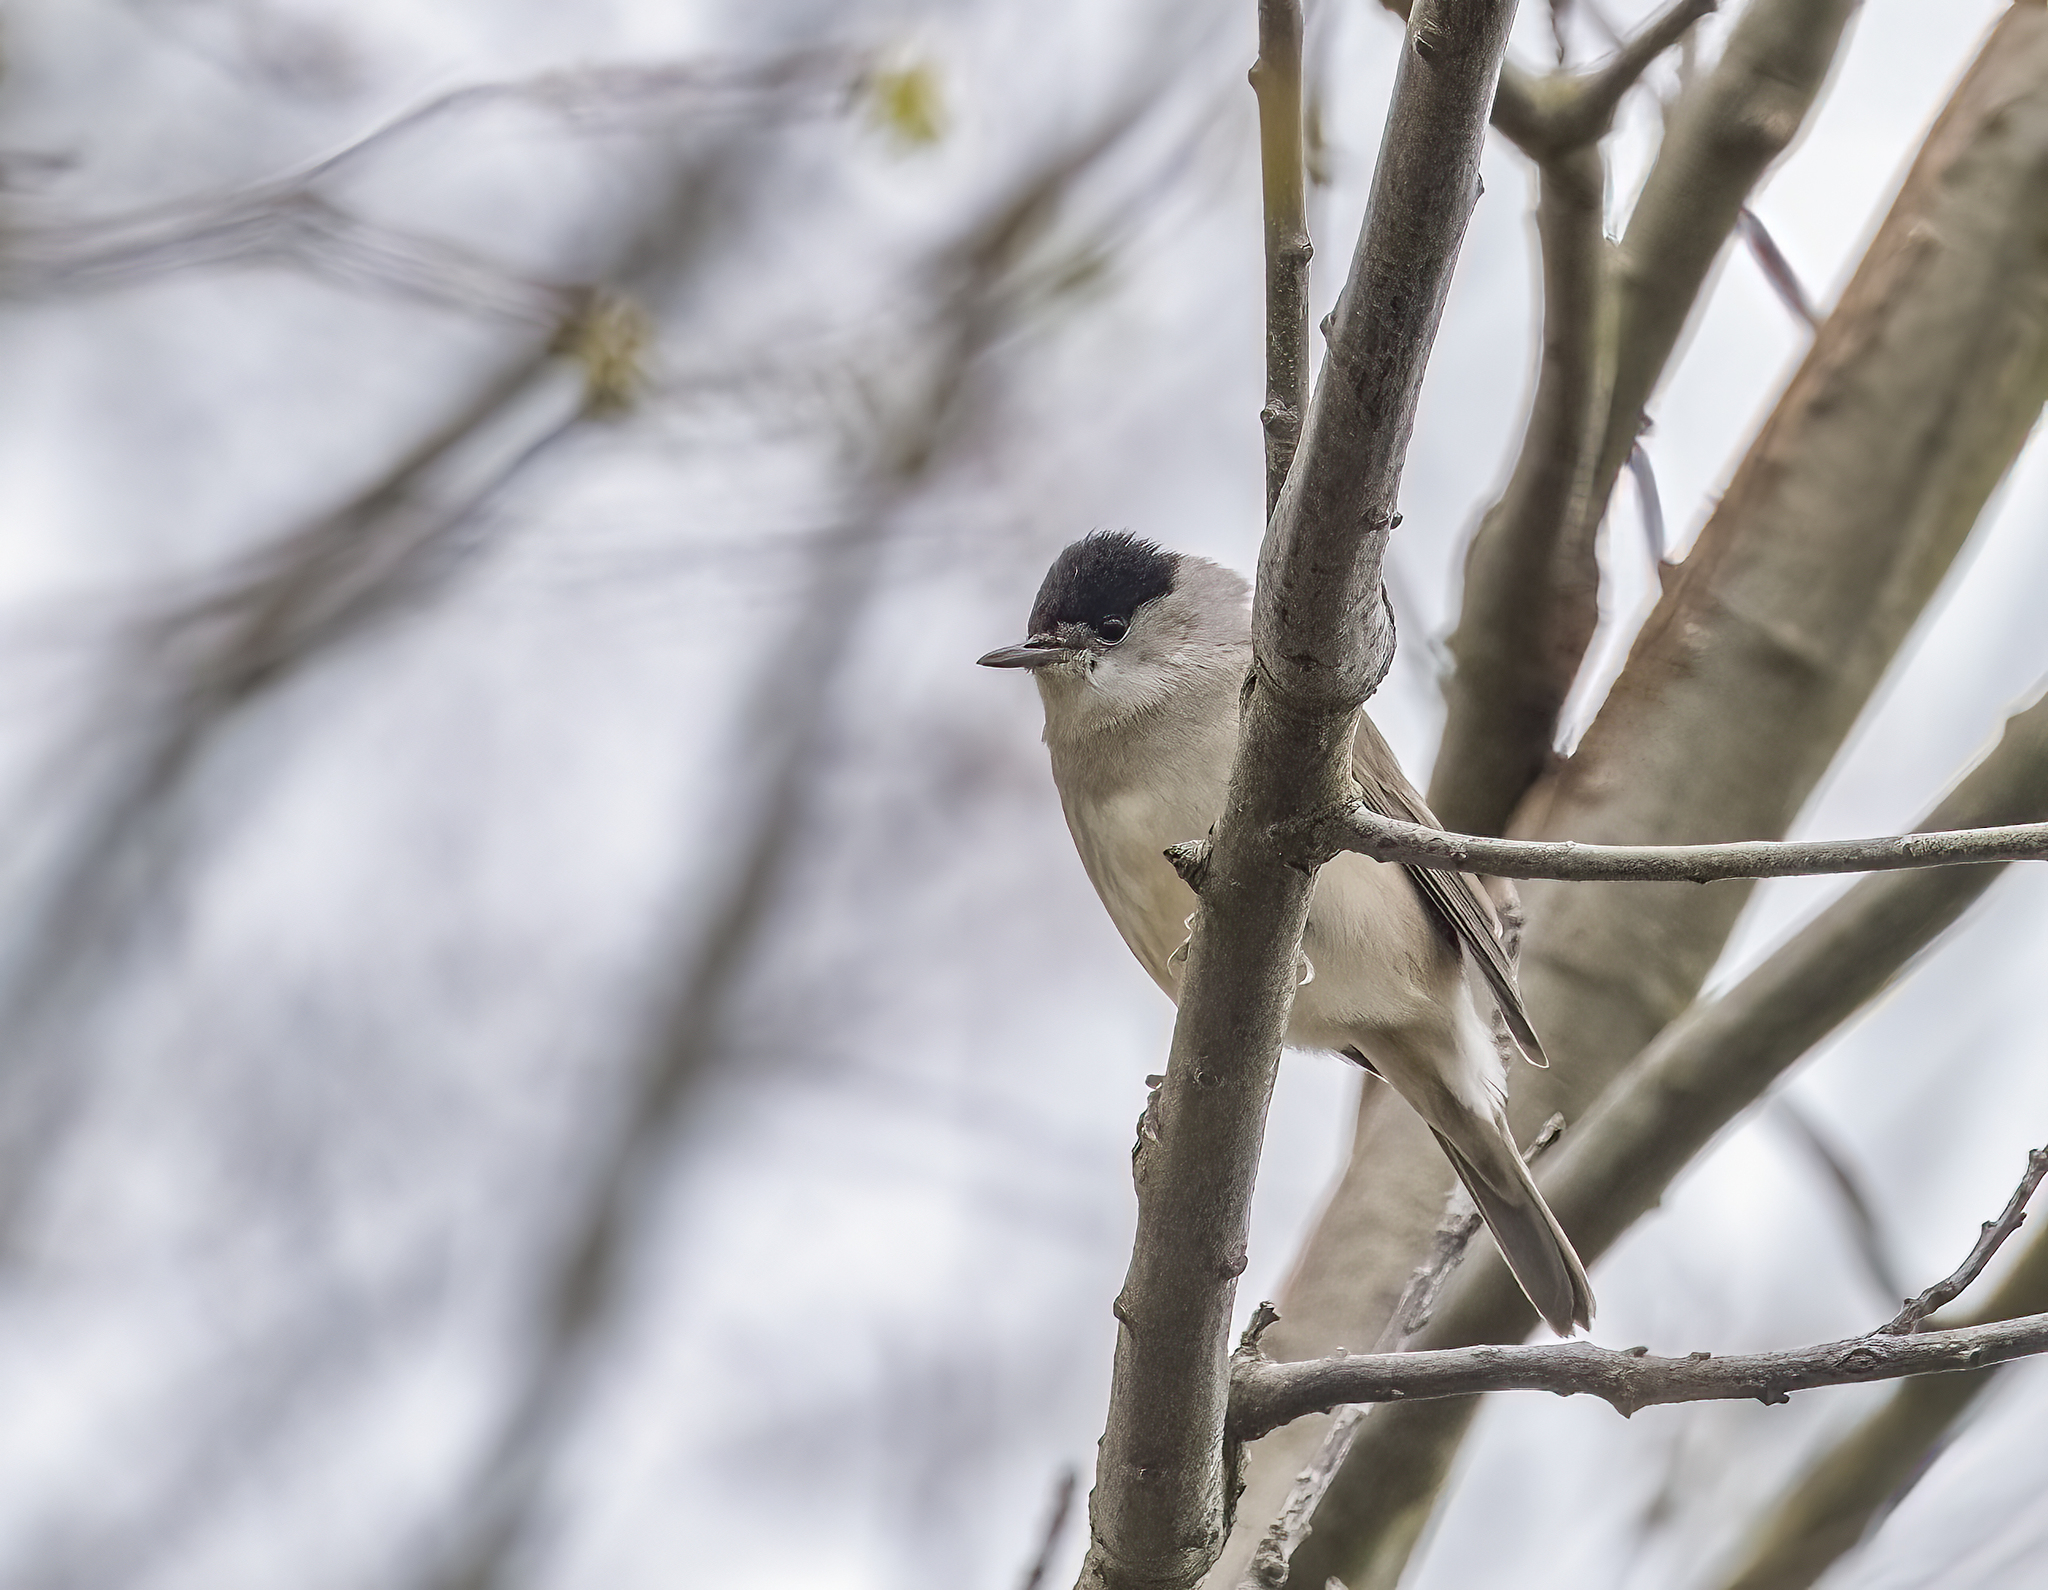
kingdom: Animalia
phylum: Chordata
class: Aves
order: Passeriformes
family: Sylviidae
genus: Sylvia
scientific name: Sylvia atricapilla
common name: Eurasian blackcap
